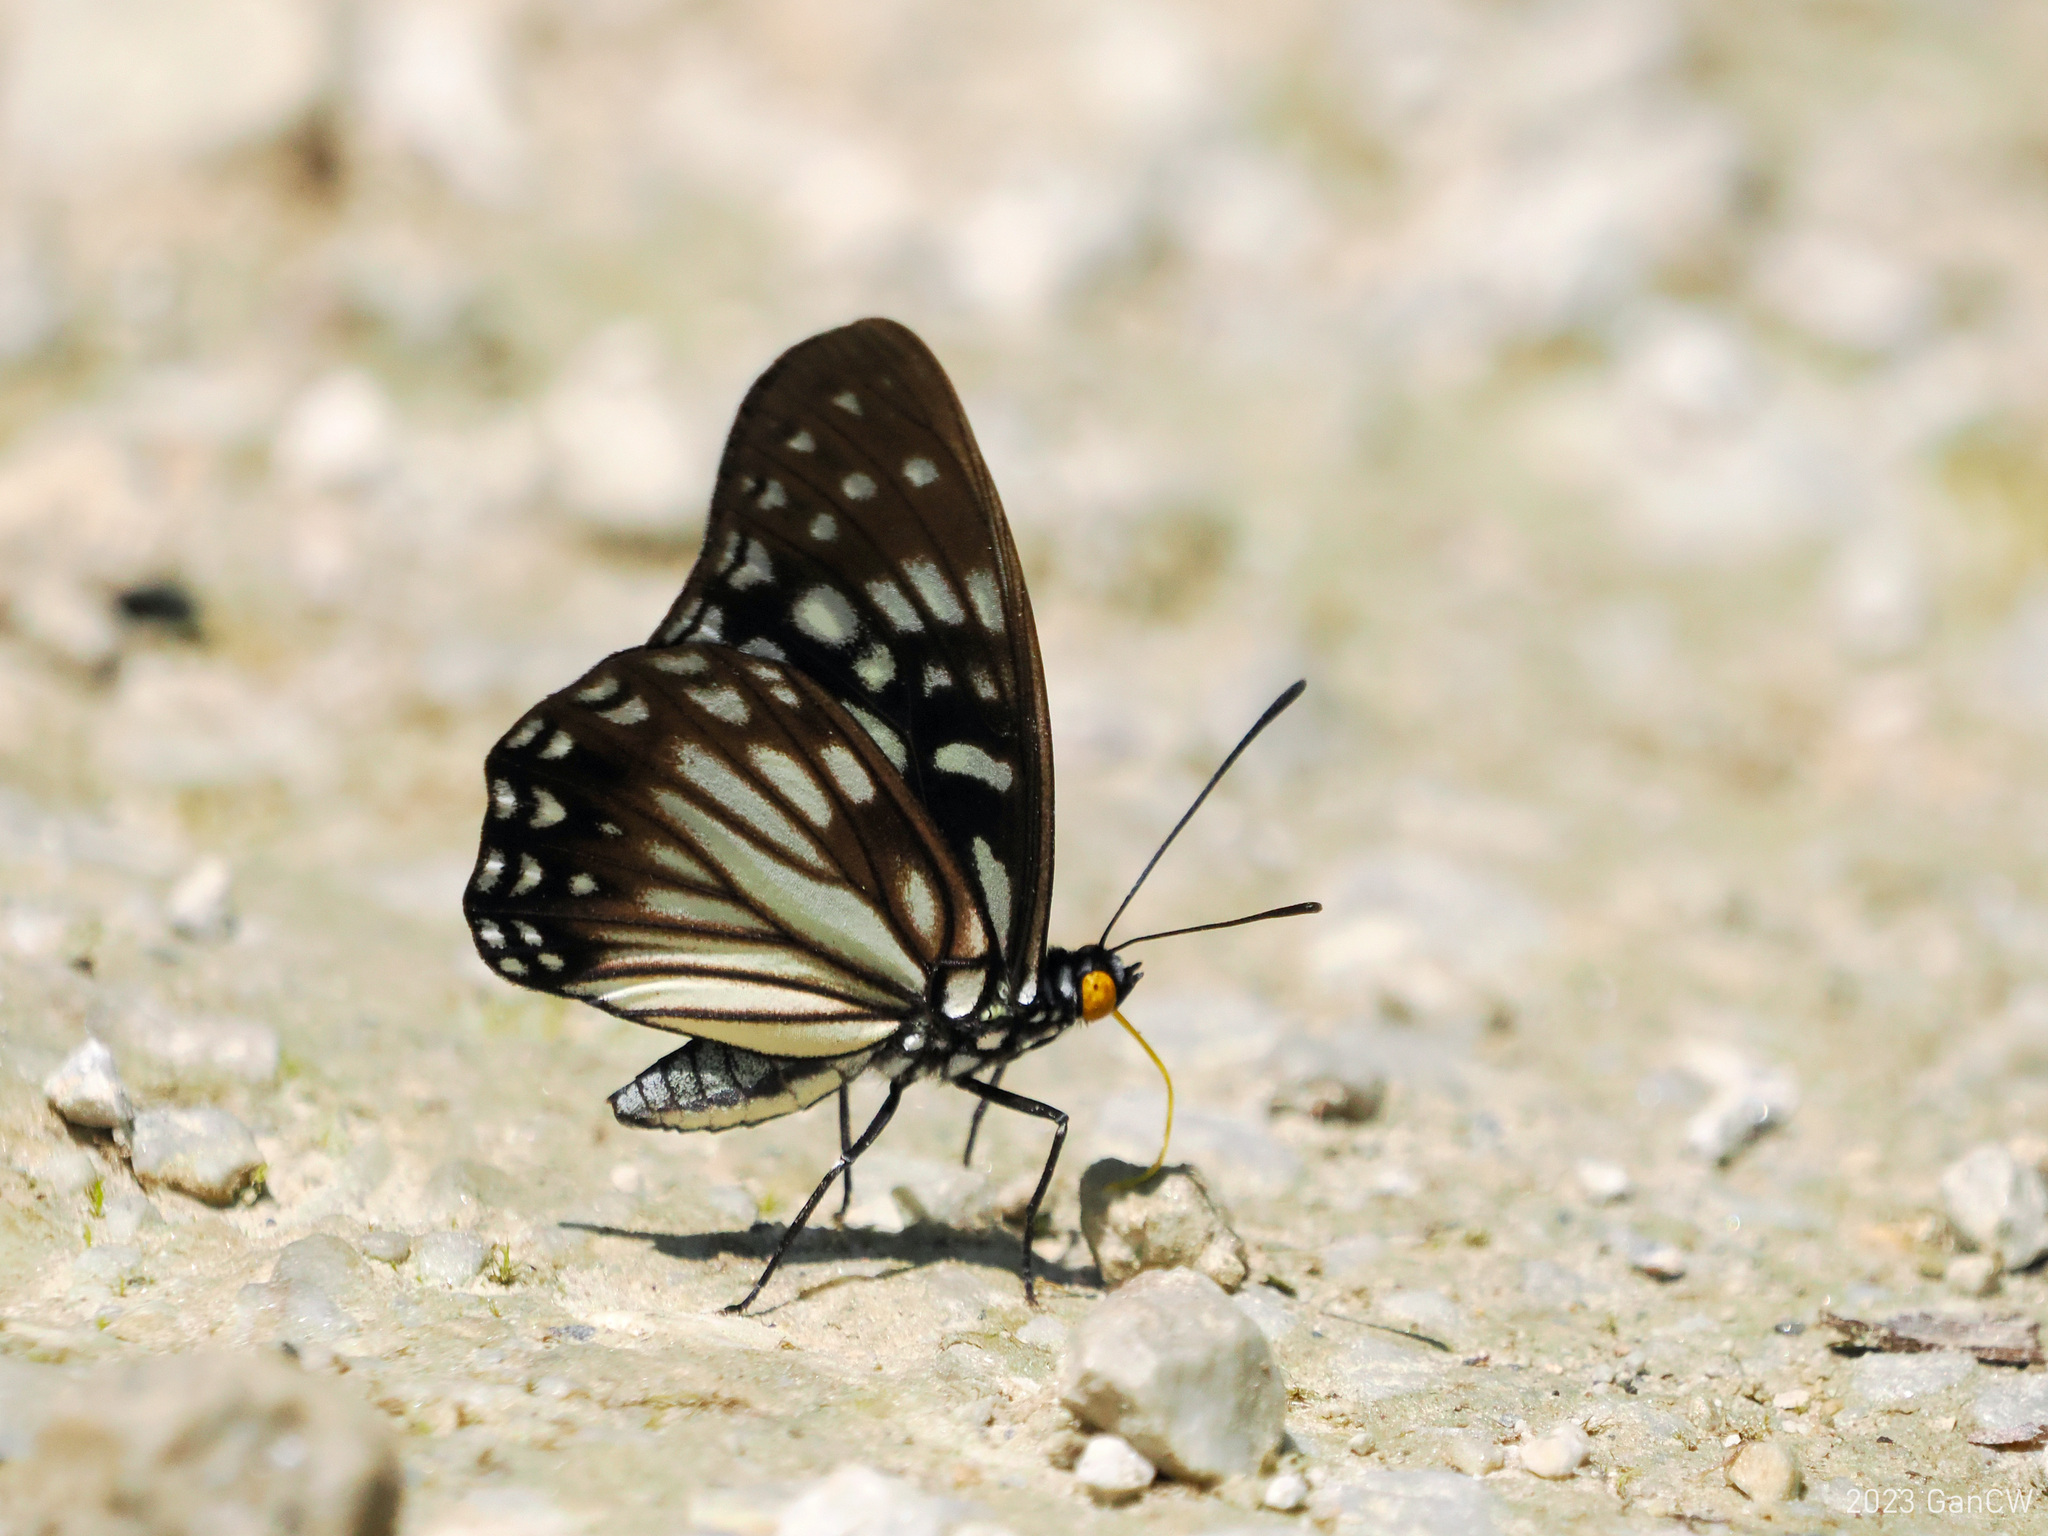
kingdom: Animalia
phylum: Arthropoda
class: Insecta
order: Lepidoptera
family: Nymphalidae
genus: Hestina
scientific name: Hestina persimilis
